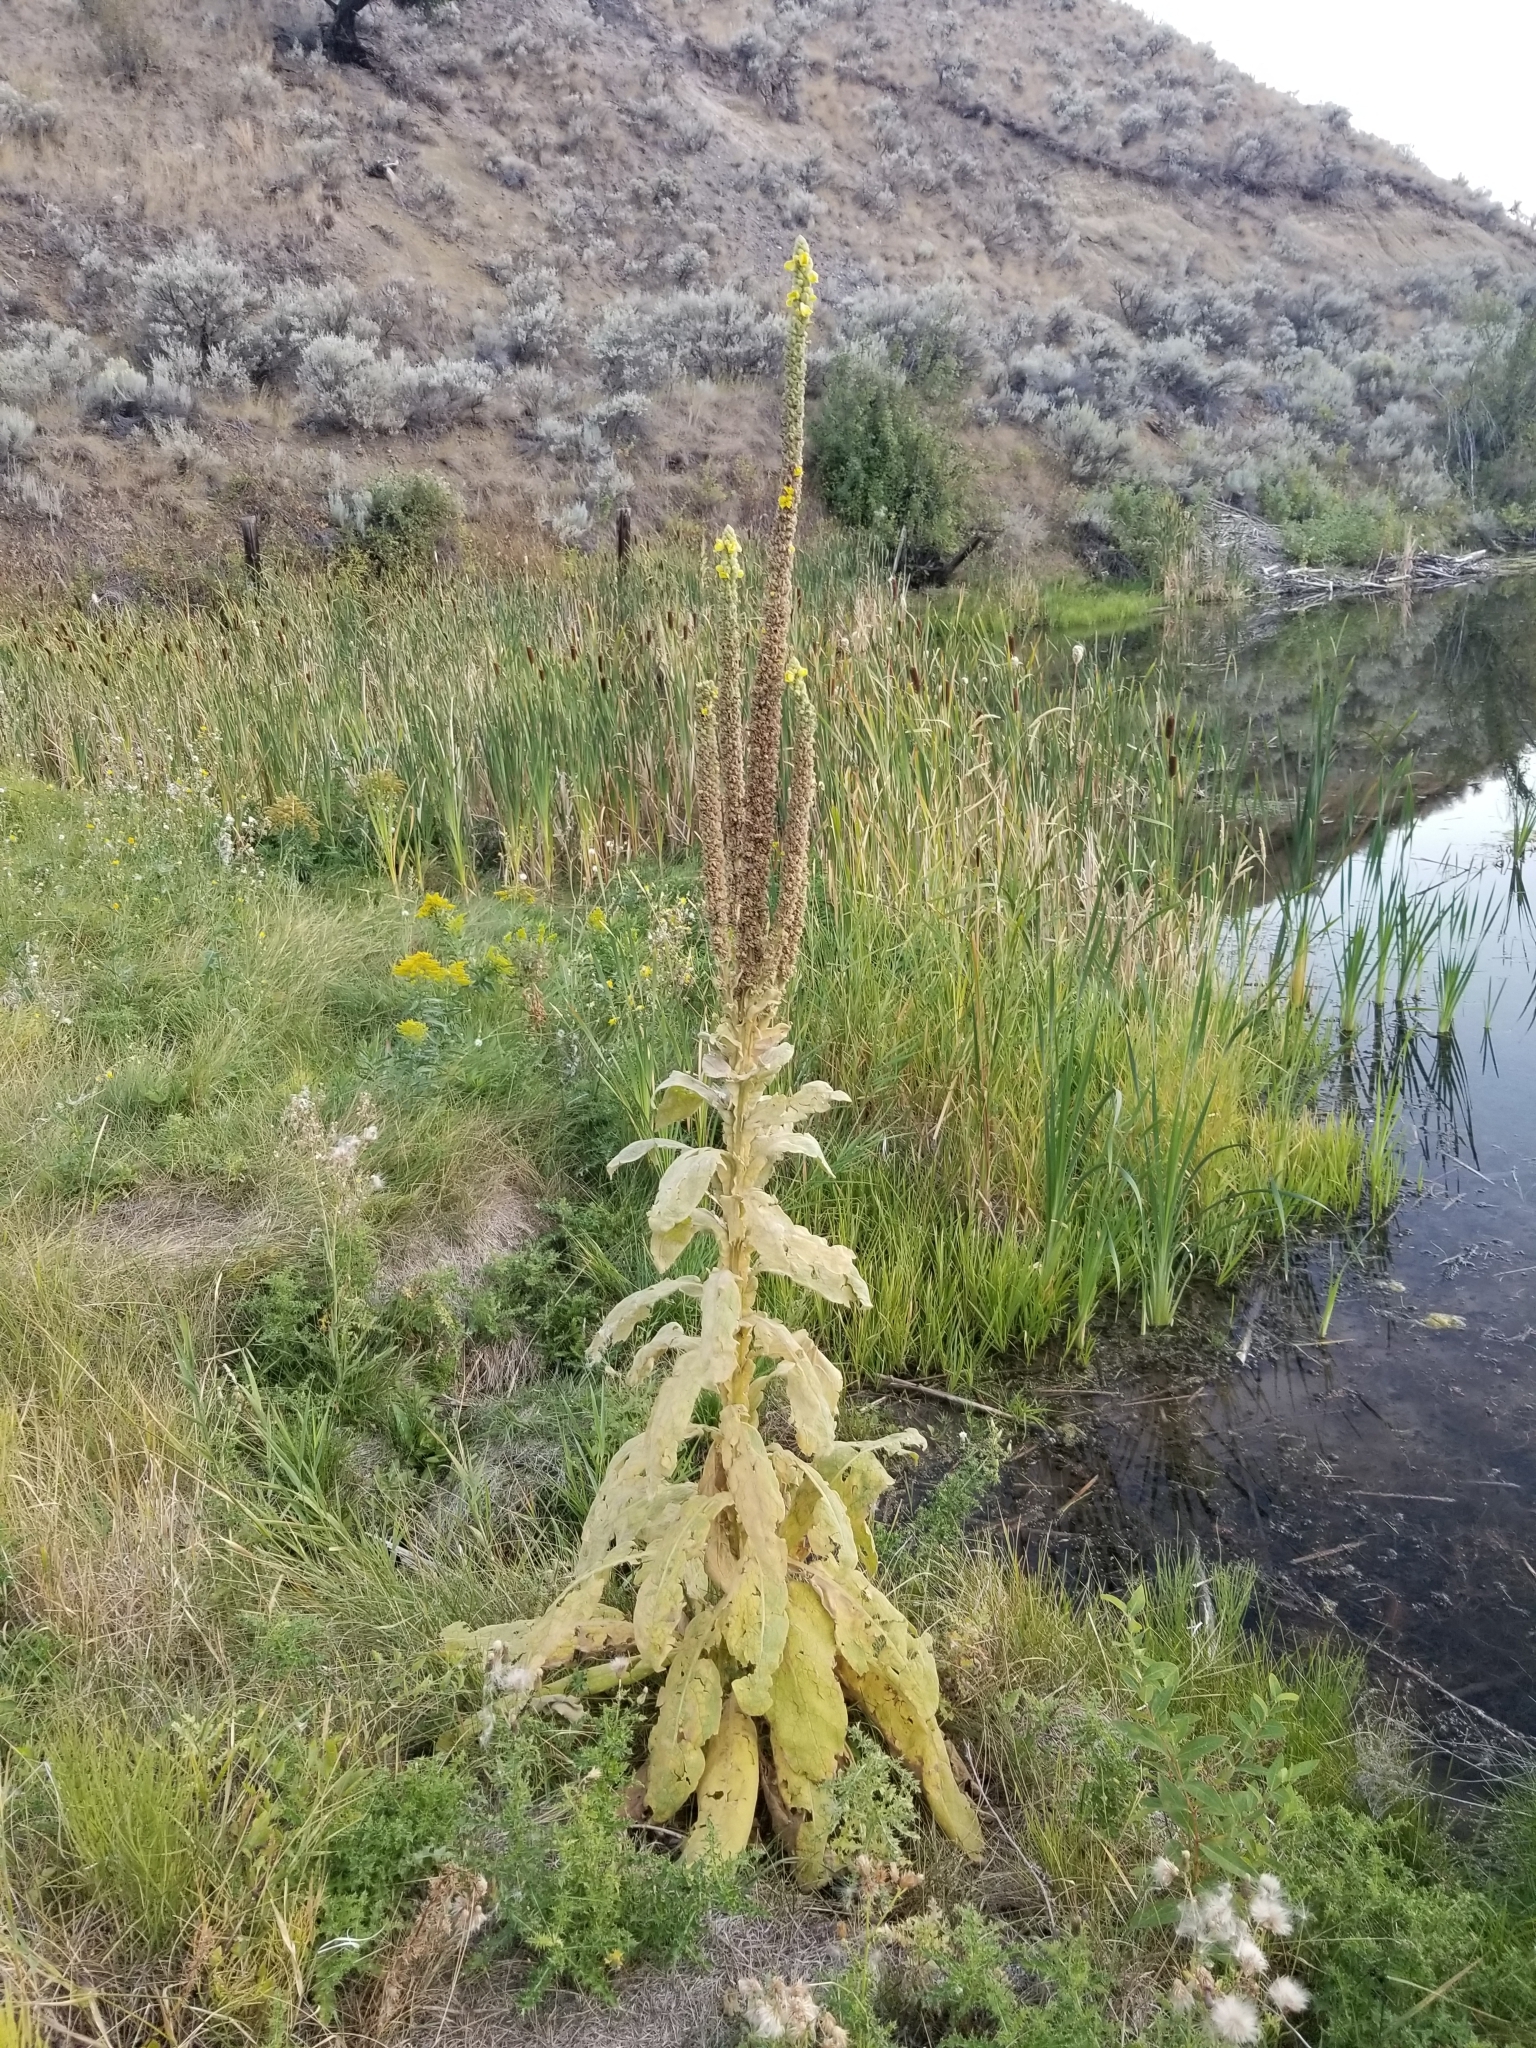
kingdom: Plantae
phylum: Tracheophyta
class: Magnoliopsida
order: Lamiales
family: Scrophulariaceae
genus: Verbascum
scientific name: Verbascum thapsus
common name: Common mullein
